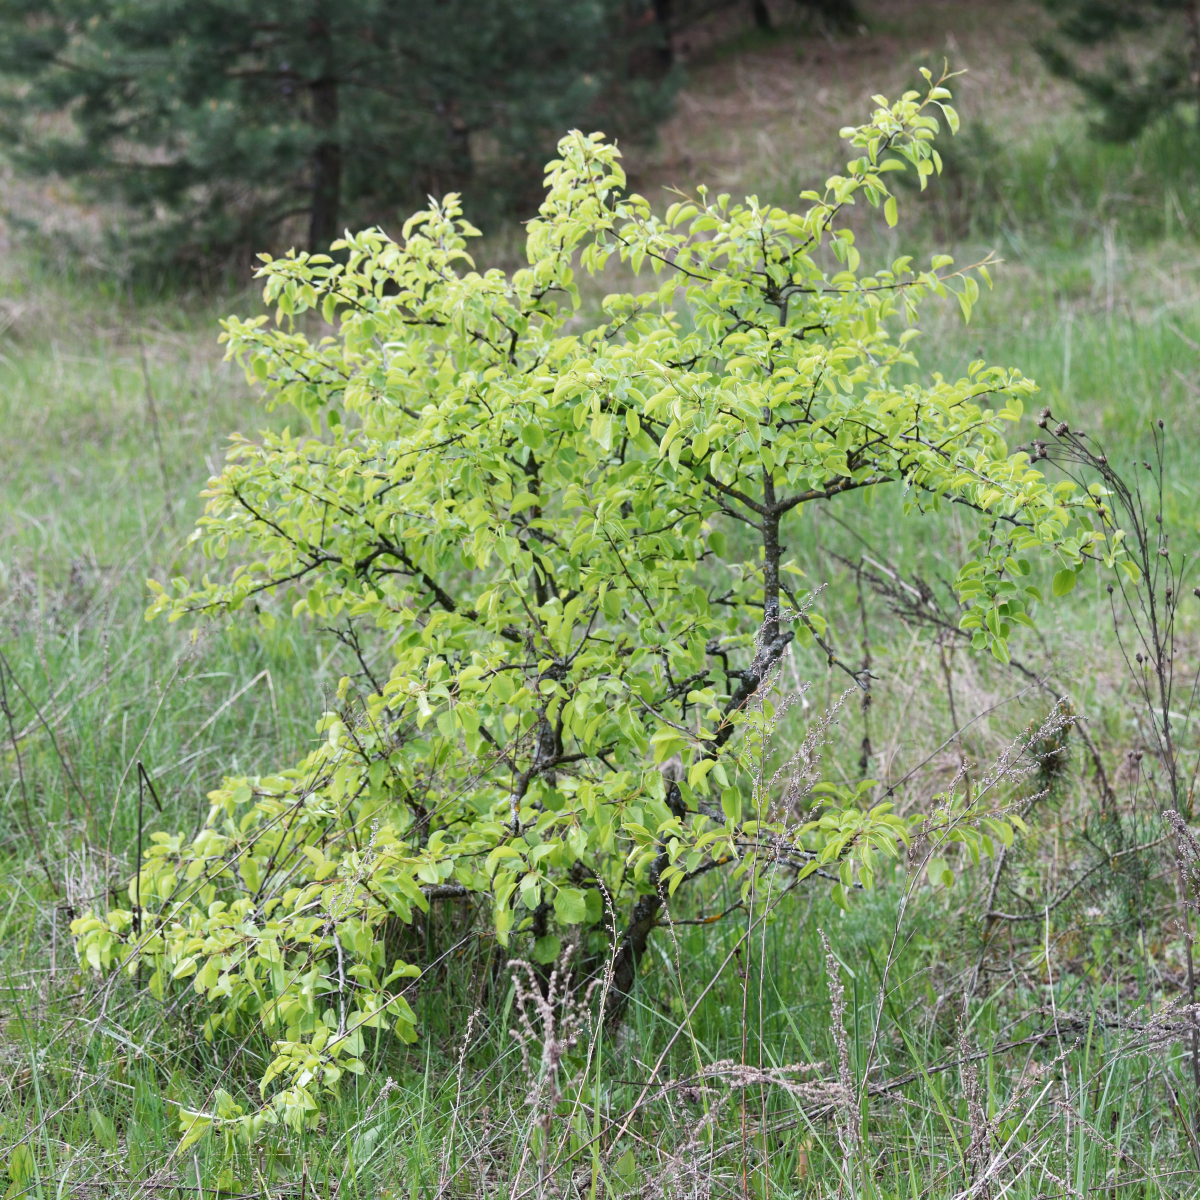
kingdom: Plantae
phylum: Tracheophyta
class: Magnoliopsida
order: Rosales
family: Rosaceae
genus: Pyrus
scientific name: Pyrus communis
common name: Pear
